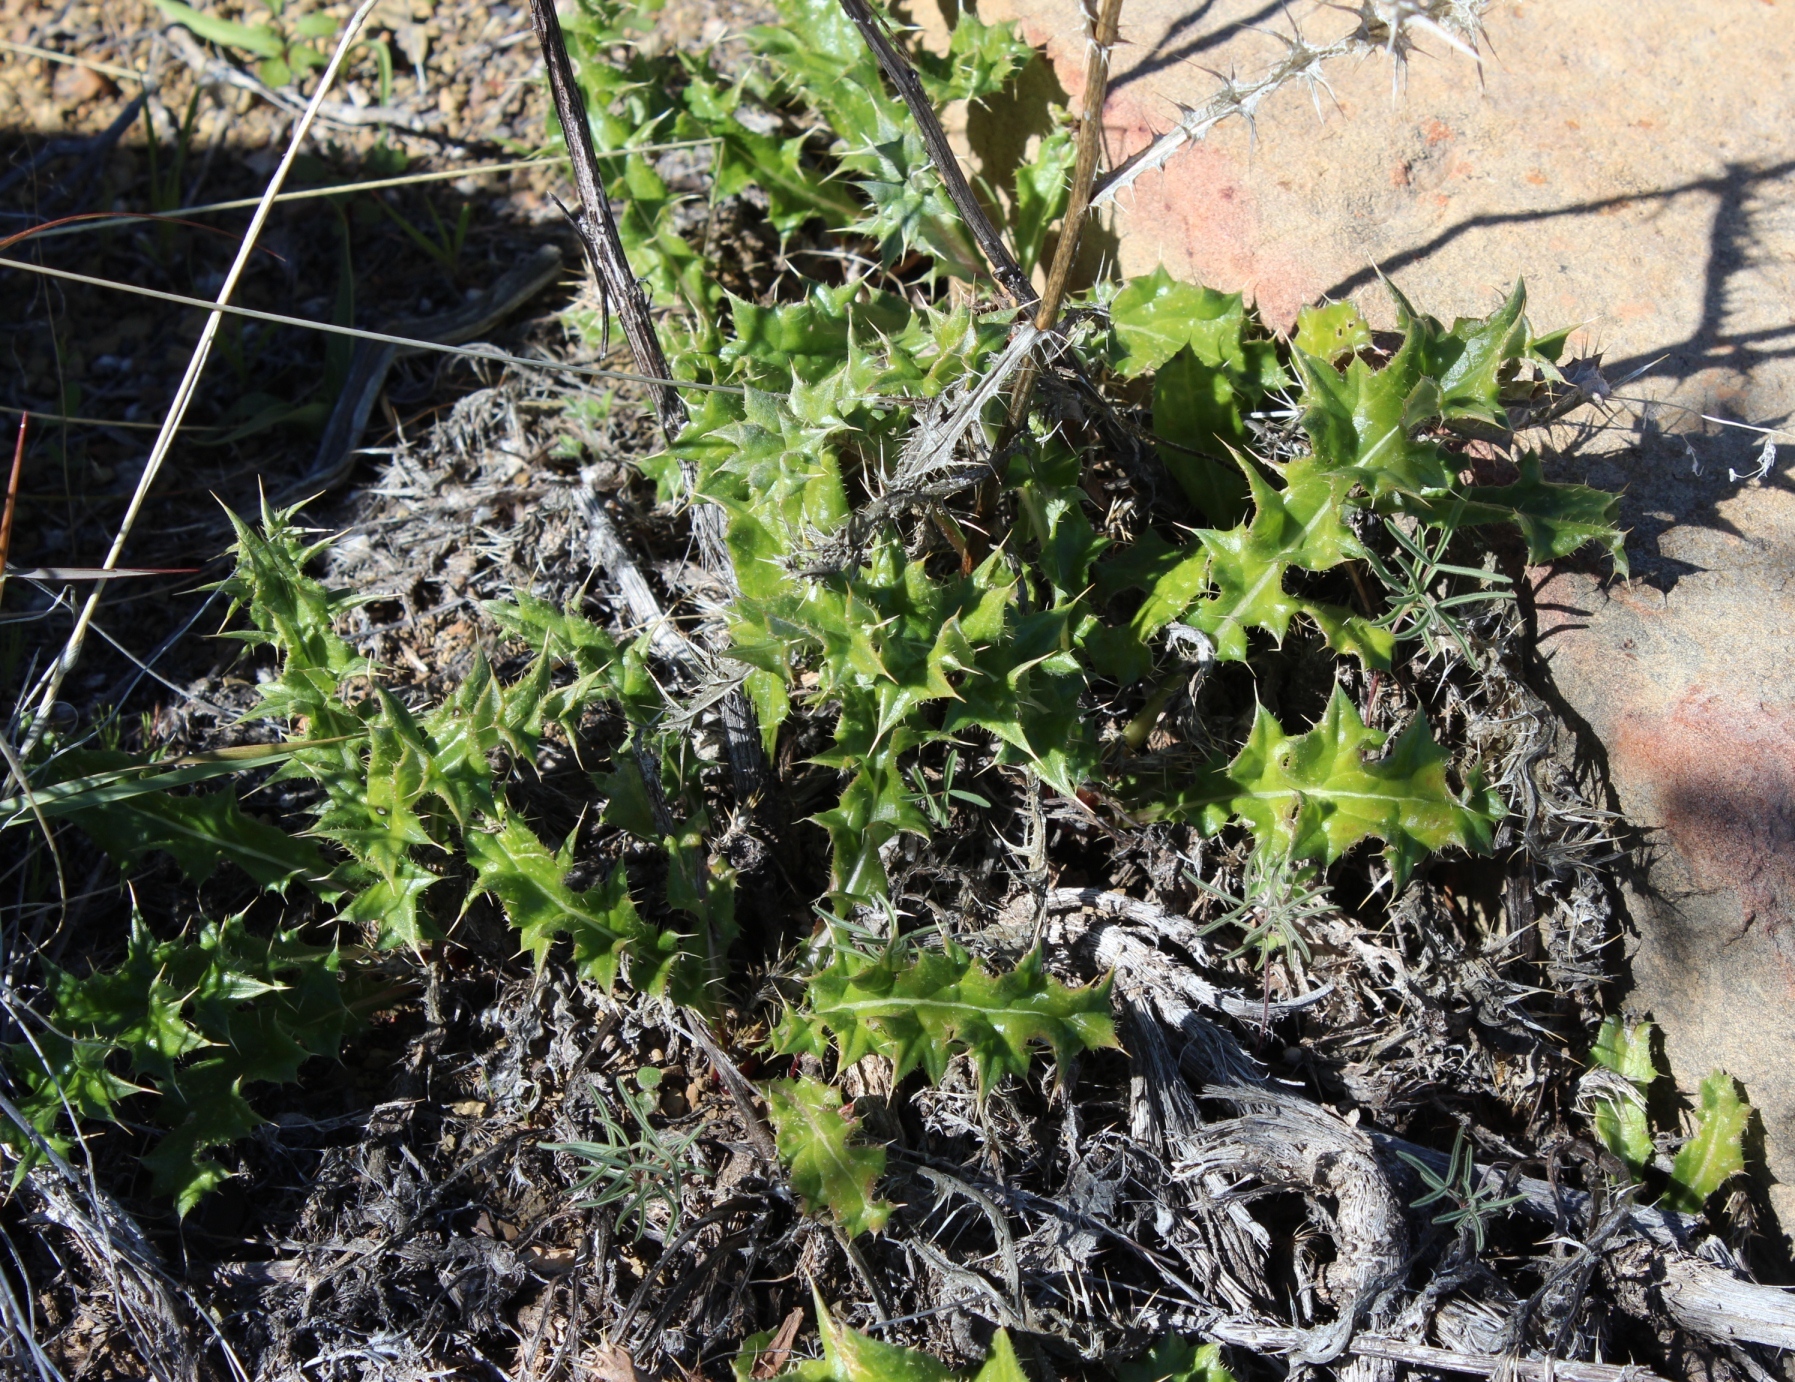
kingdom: Plantae
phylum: Tracheophyta
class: Magnoliopsida
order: Asterales
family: Asteraceae
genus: Berkheya
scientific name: Berkheya carlinifolia
